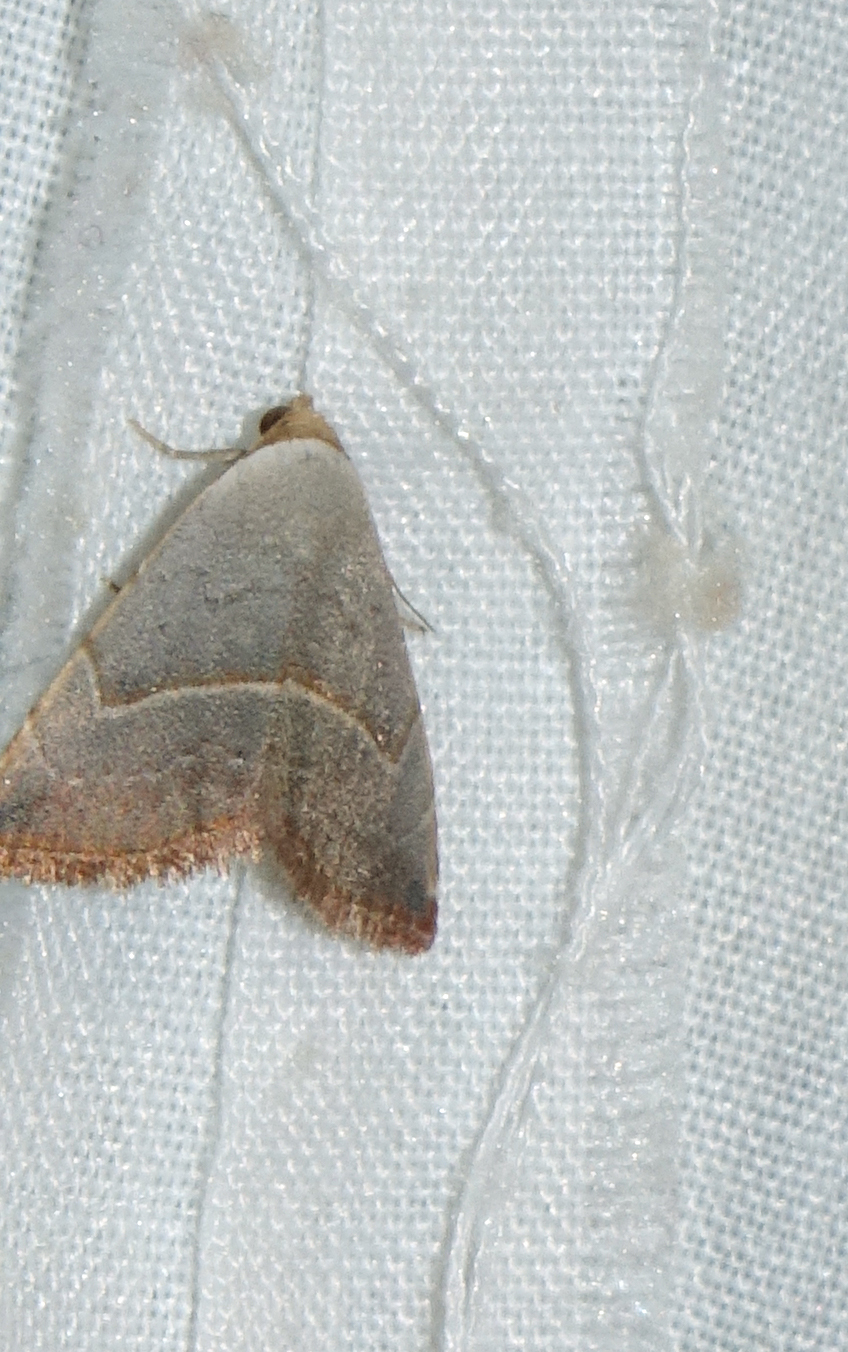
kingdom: Animalia
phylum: Arthropoda
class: Insecta
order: Lepidoptera
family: Noctuidae
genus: Eublemma
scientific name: Eublemma polygramma
